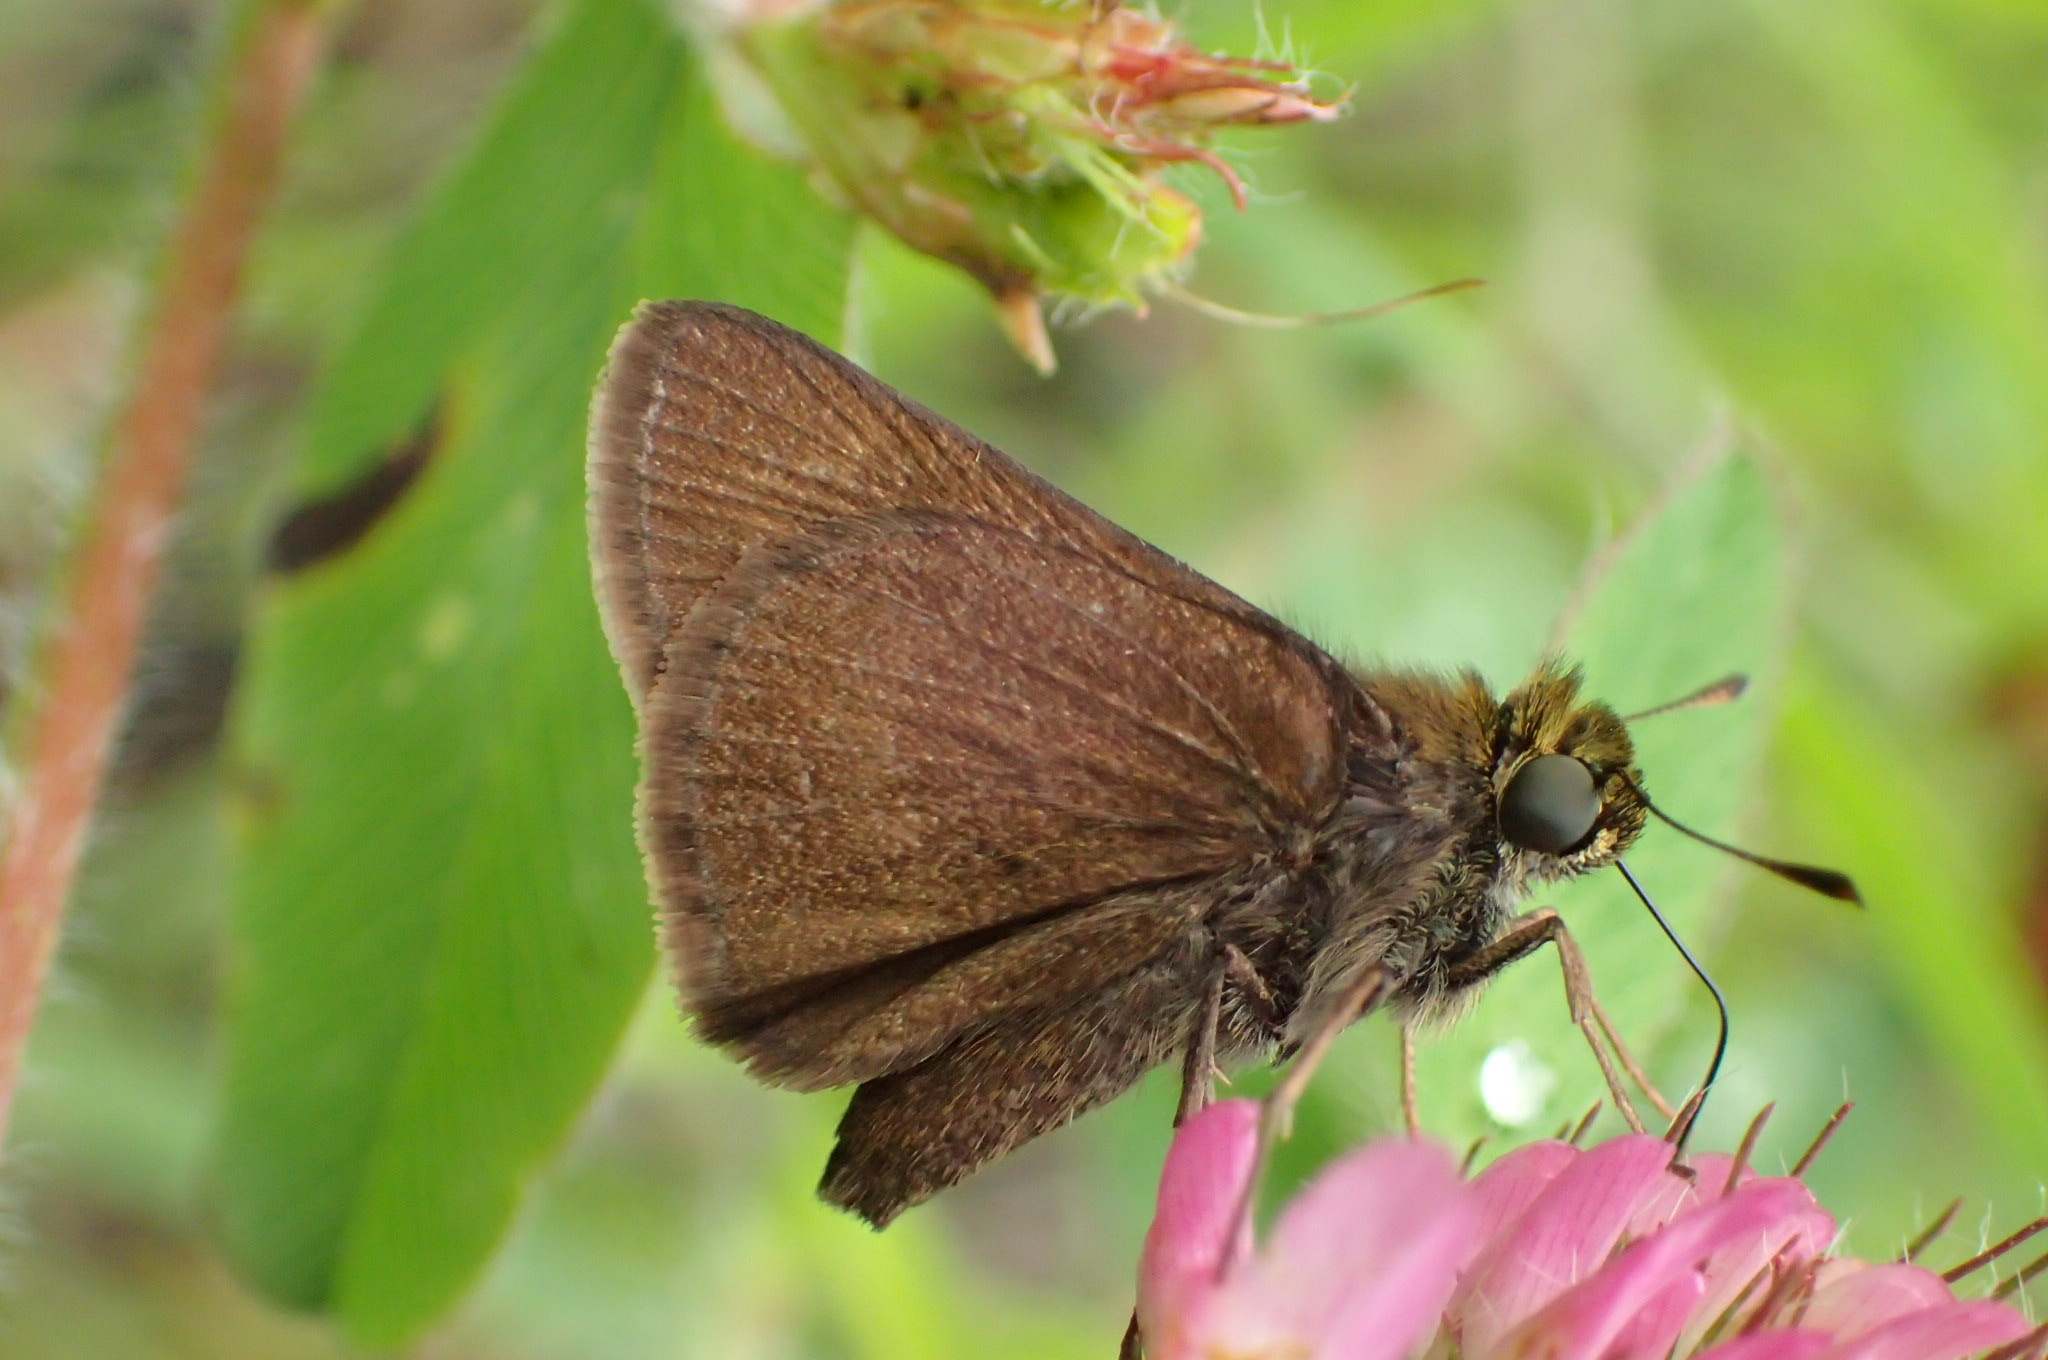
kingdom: Animalia
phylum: Arthropoda
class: Insecta
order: Lepidoptera
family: Hesperiidae
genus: Euphyes
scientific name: Euphyes vestris
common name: Dun skipper
